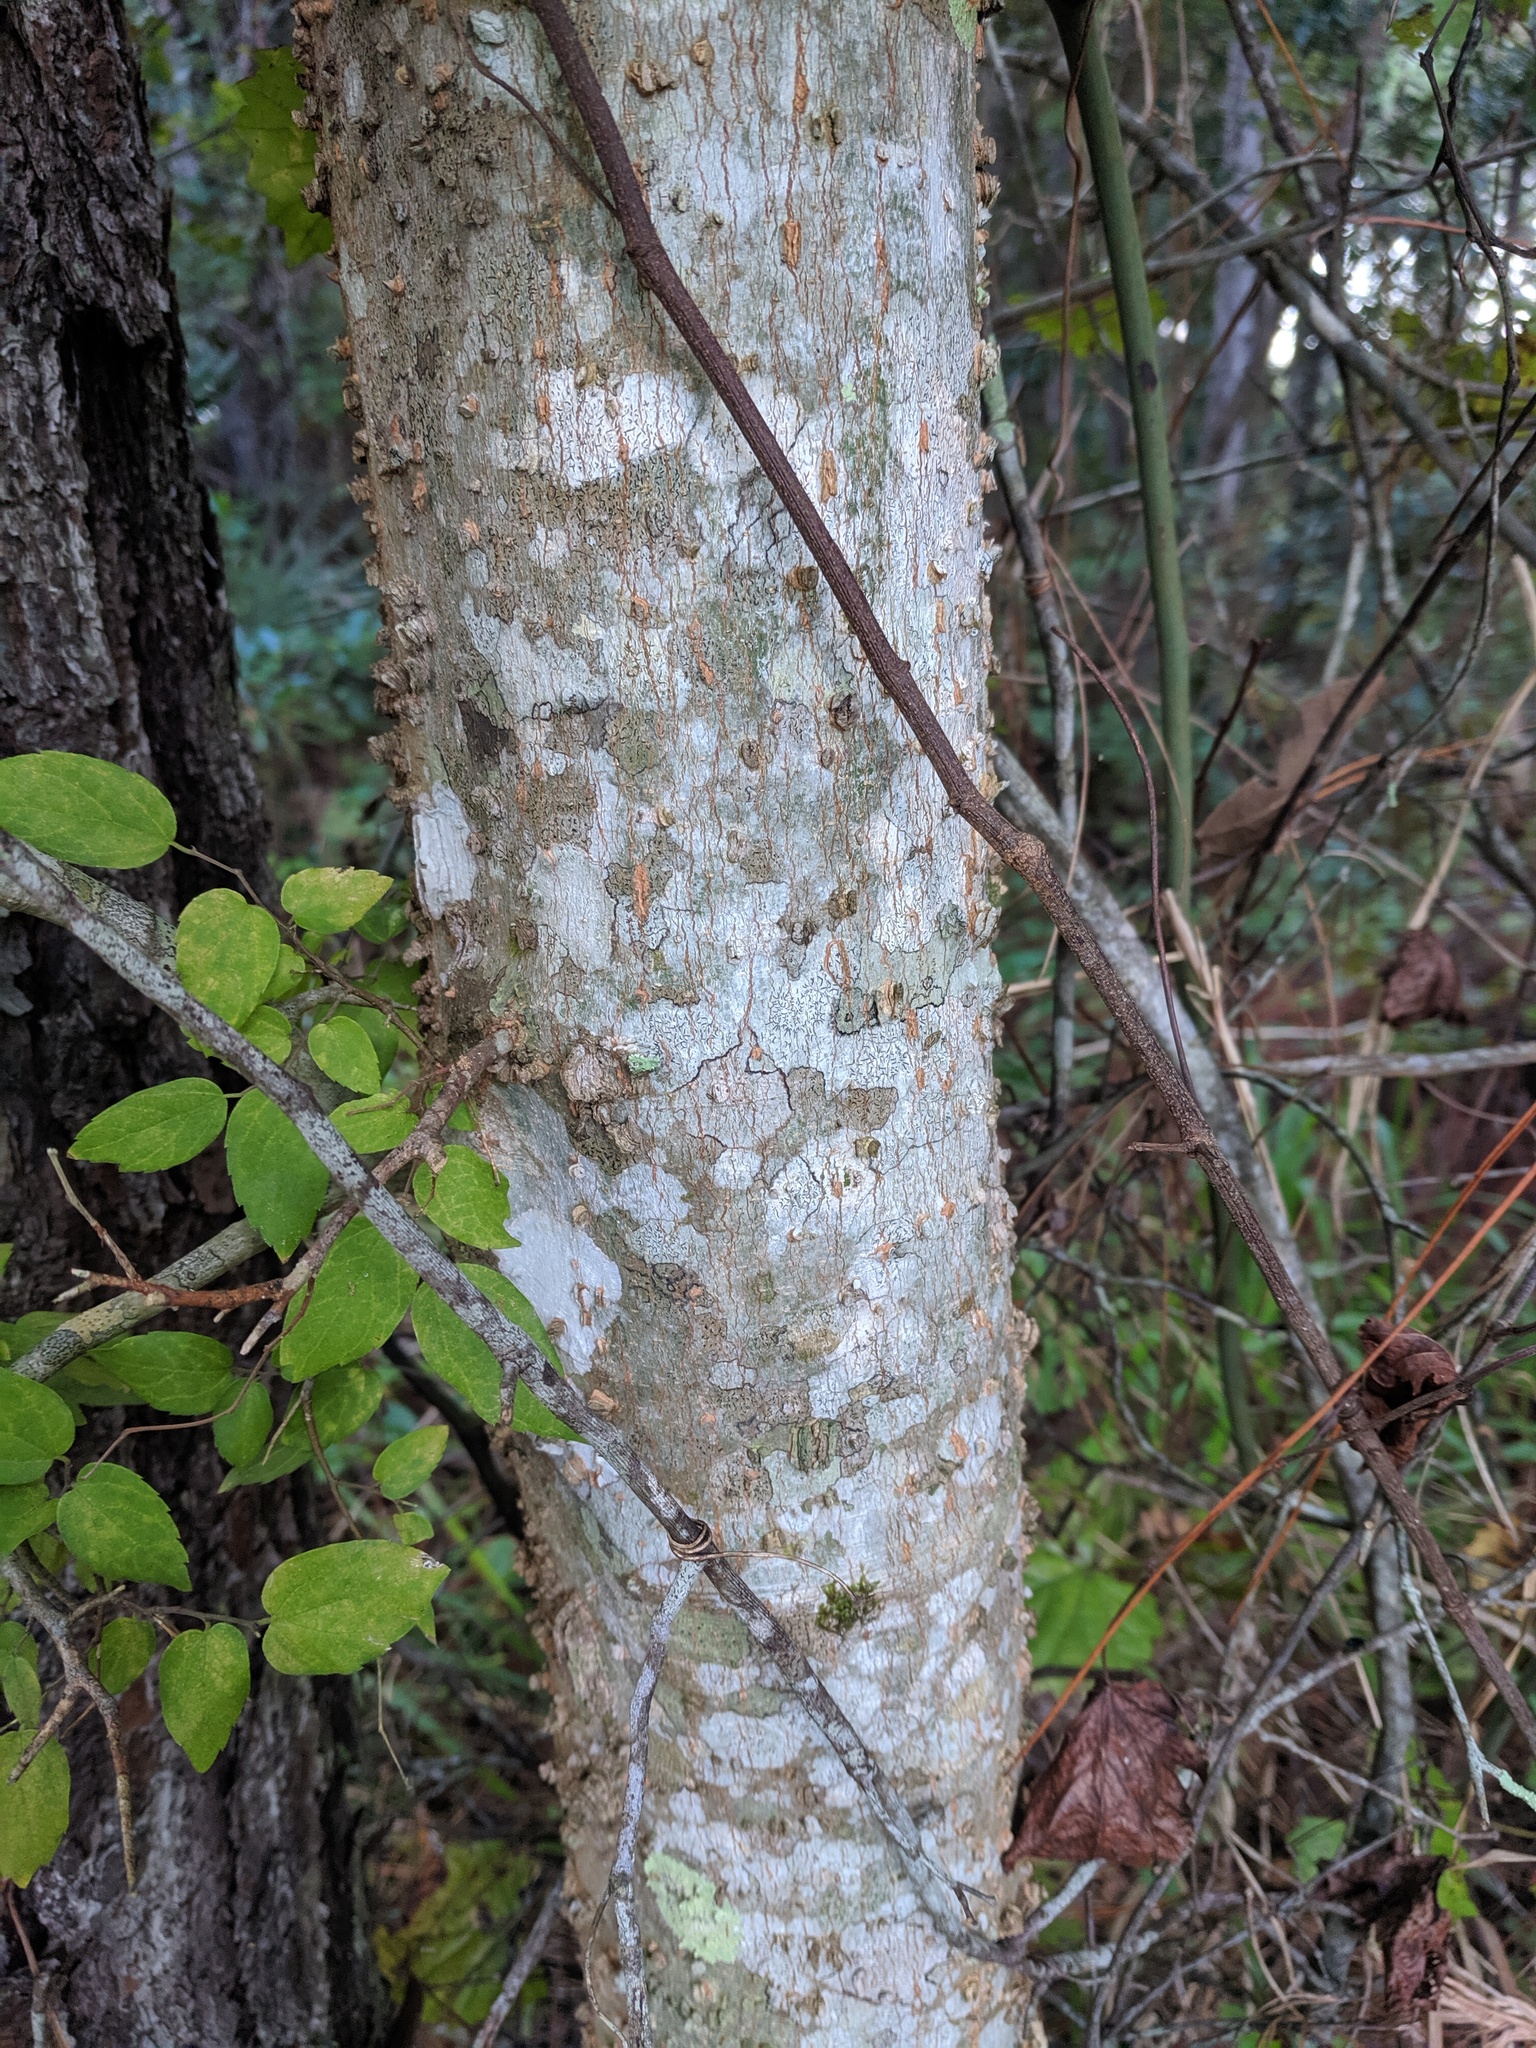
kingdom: Plantae
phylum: Tracheophyta
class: Magnoliopsida
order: Rosales
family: Cannabaceae
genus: Celtis
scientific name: Celtis laevigata
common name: Sugarberry
